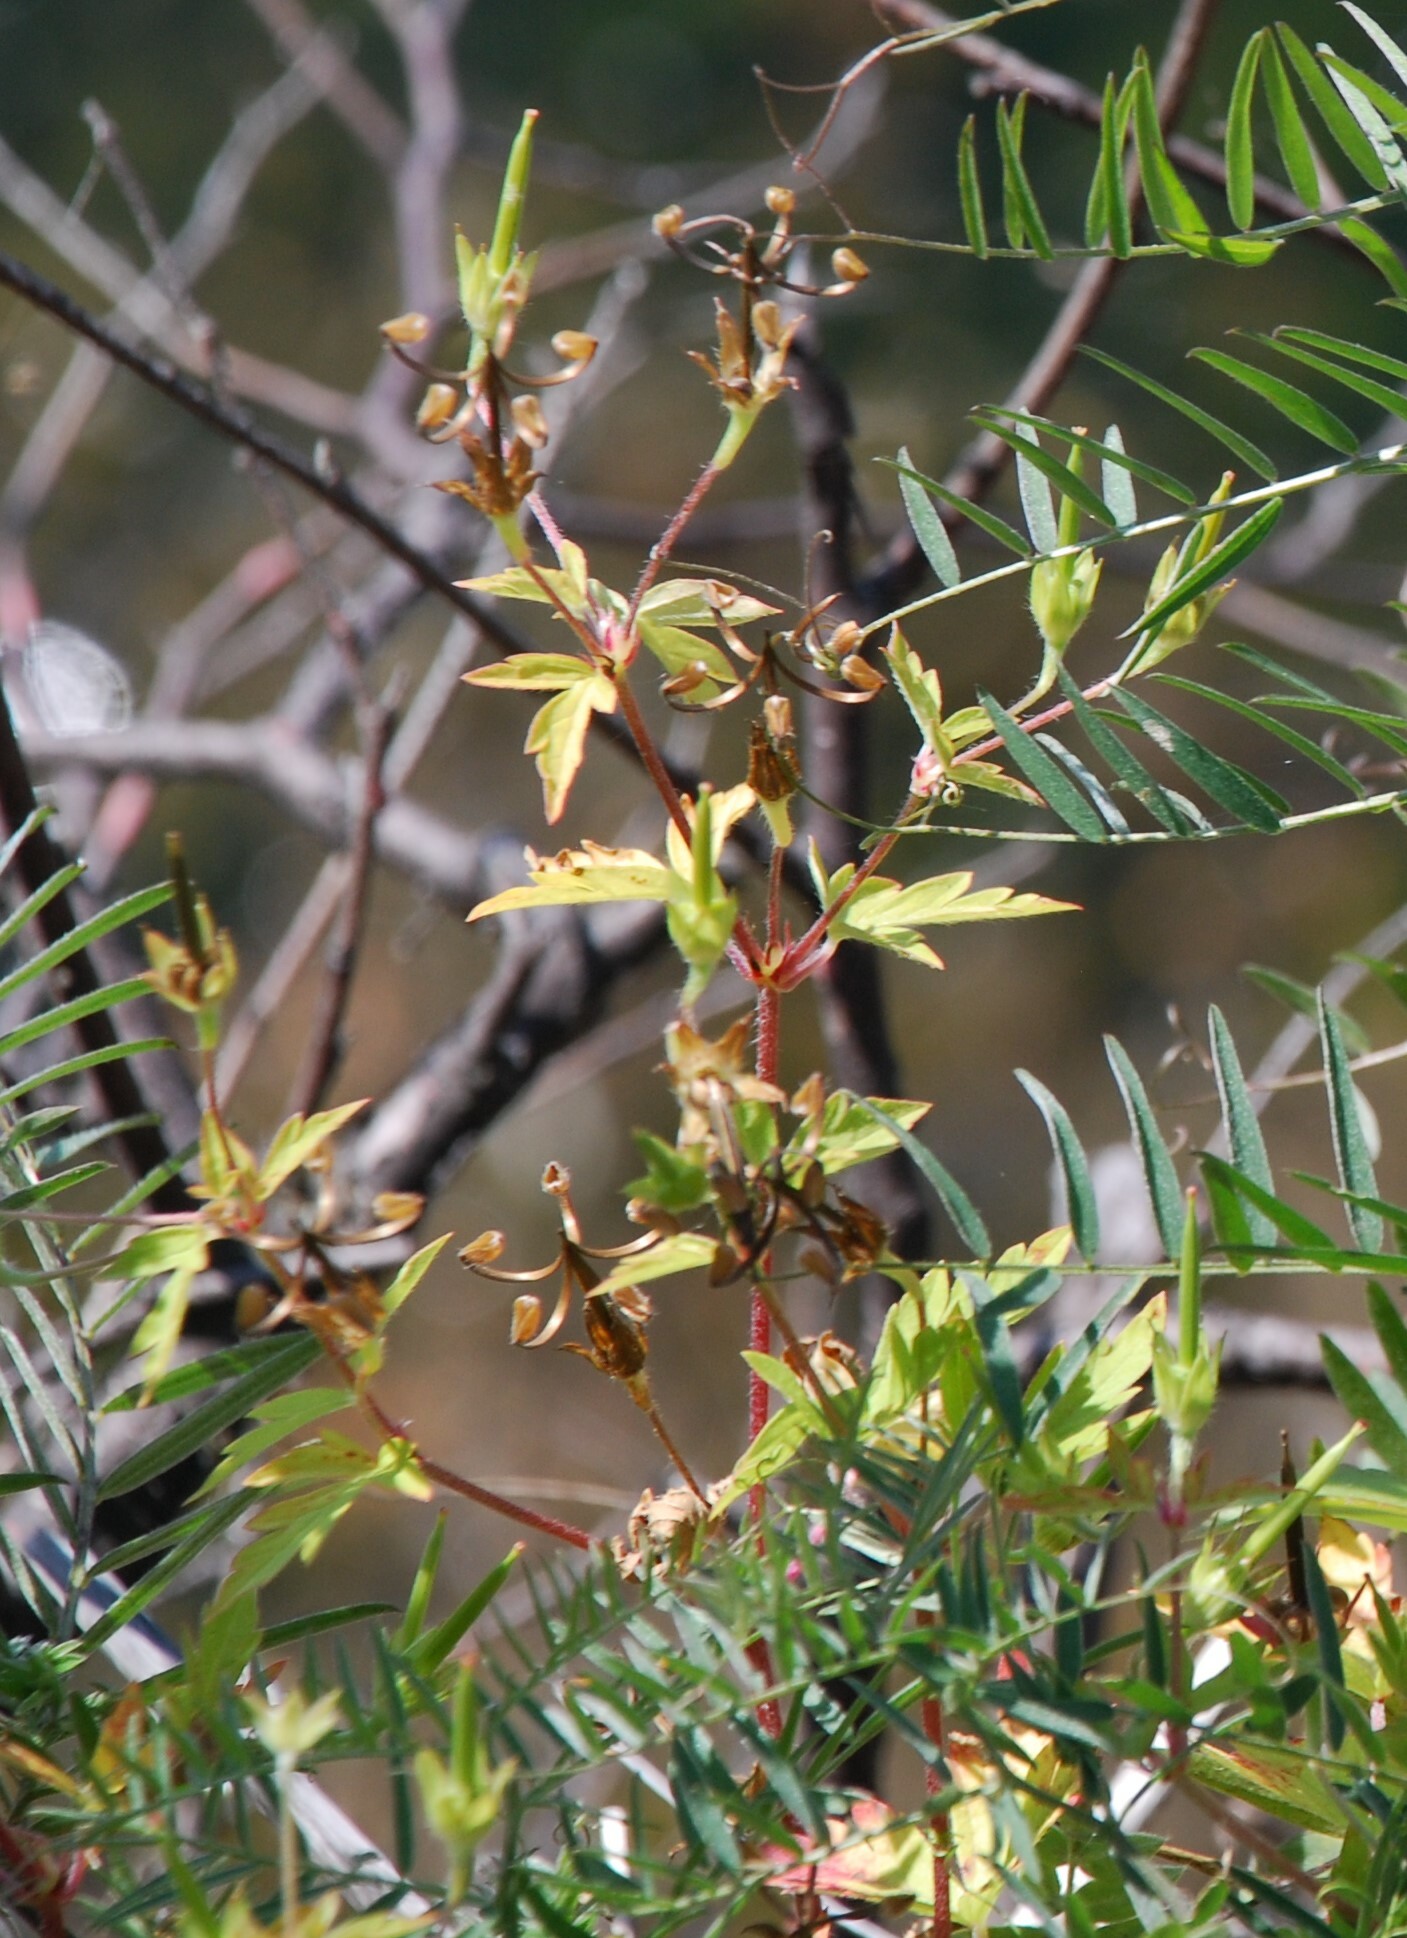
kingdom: Plantae
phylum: Tracheophyta
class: Magnoliopsida
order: Geraniales
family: Geraniaceae
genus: Geranium
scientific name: Geranium sibiricum
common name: Siberian crane's-bill
